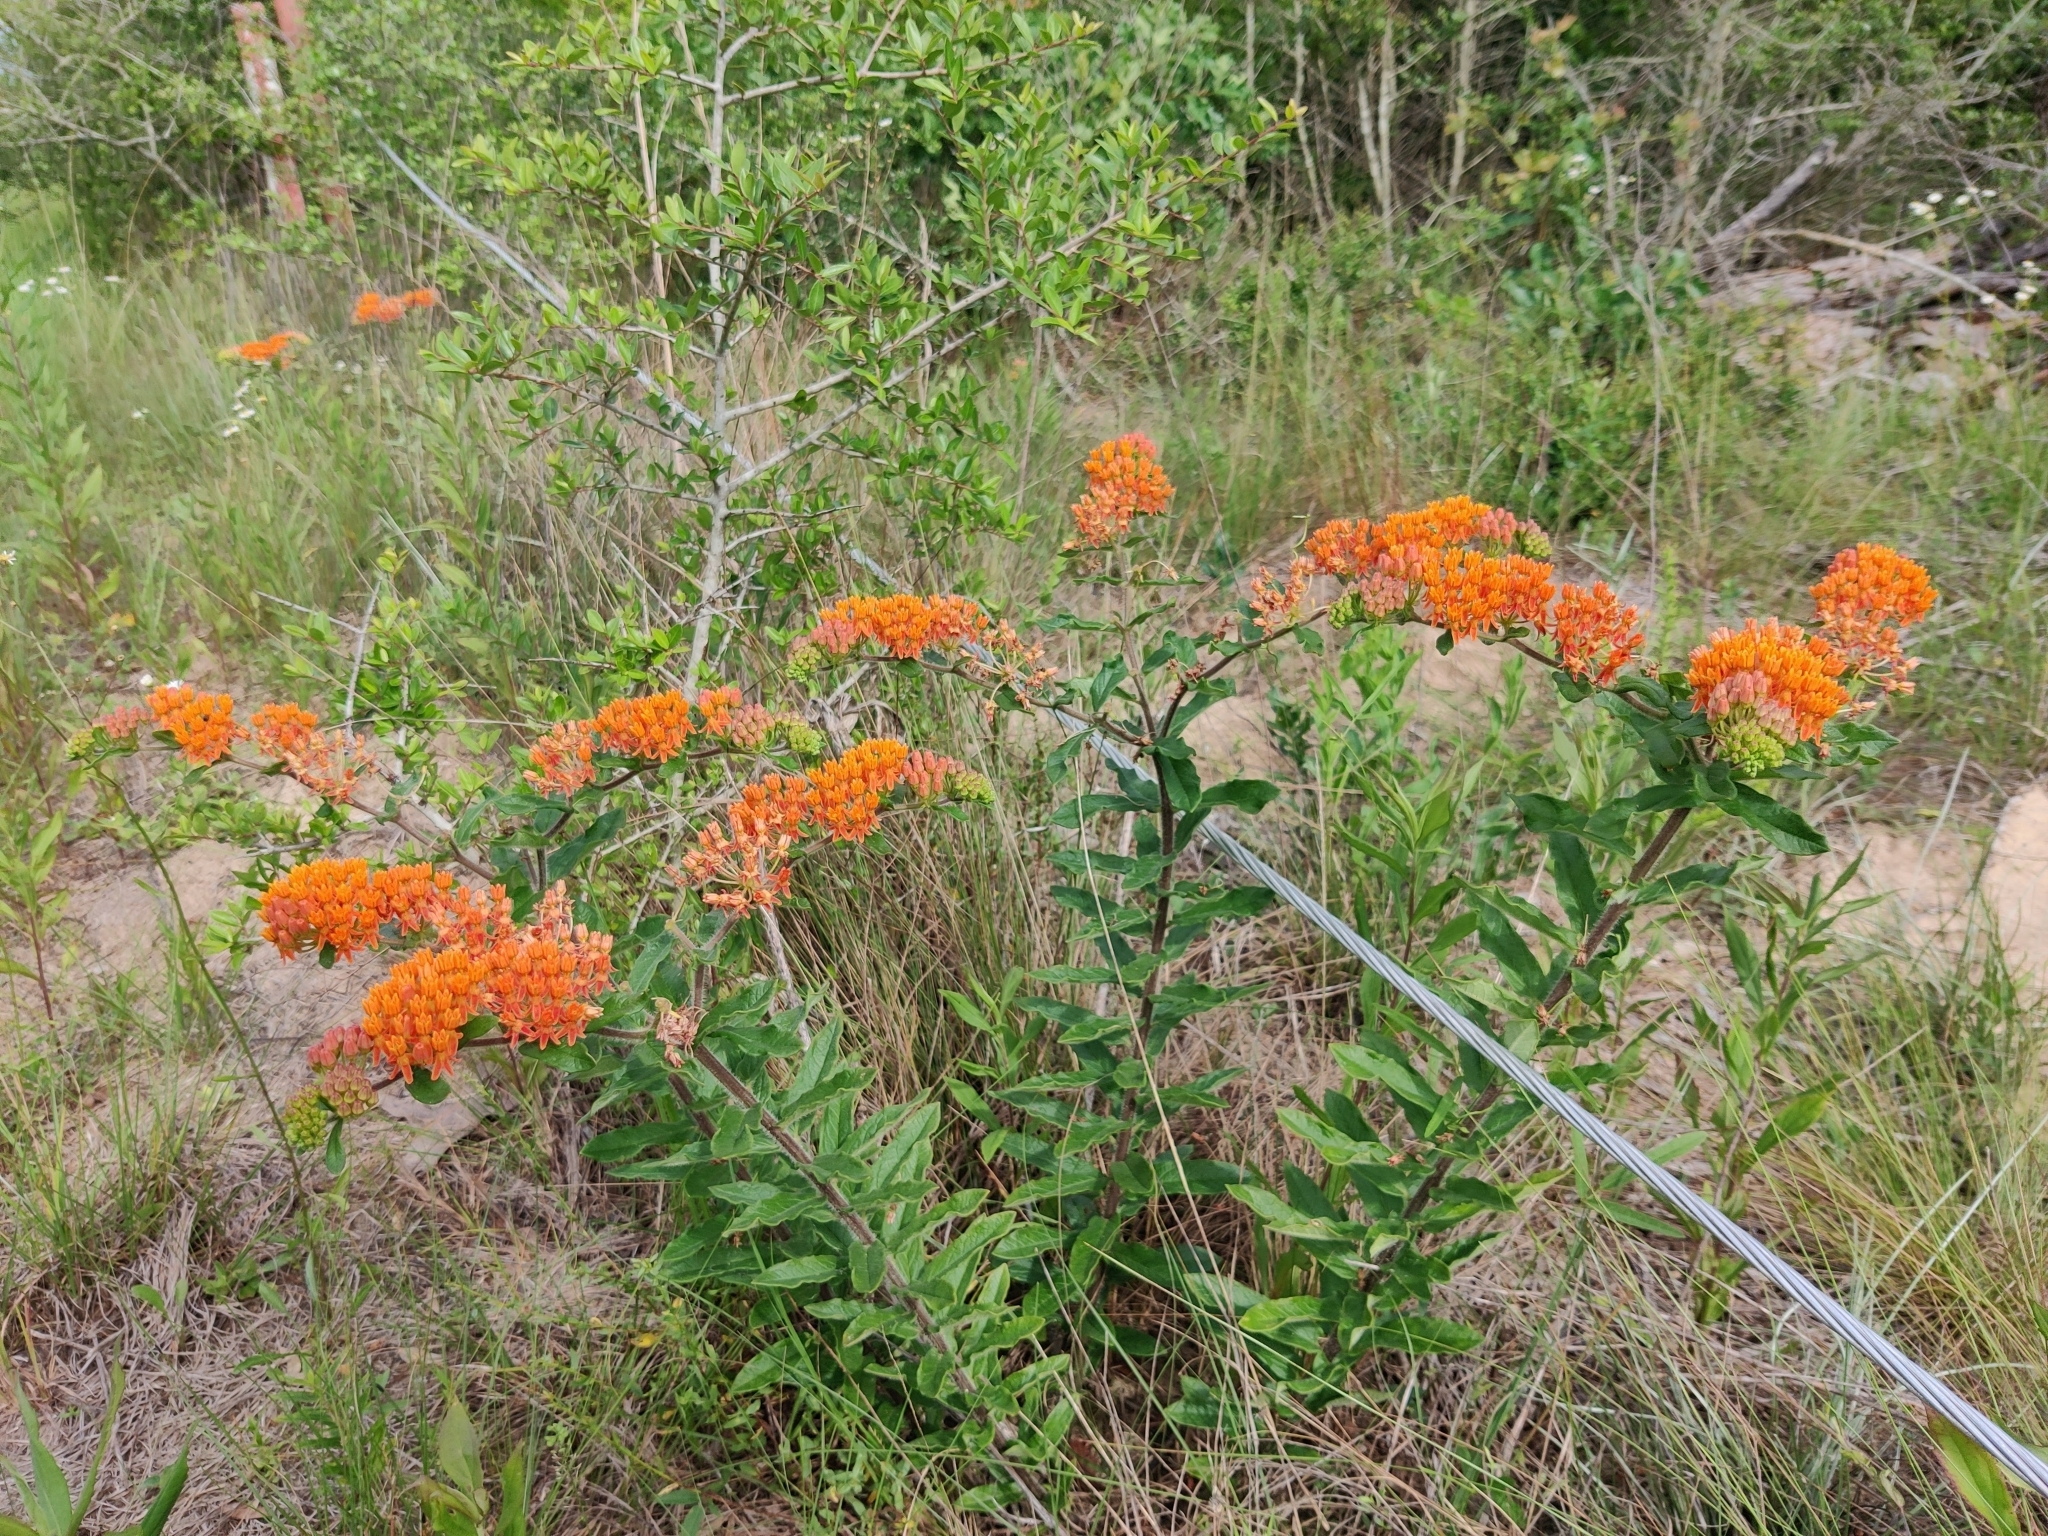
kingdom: Plantae
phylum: Tracheophyta
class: Magnoliopsida
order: Gentianales
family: Apocynaceae
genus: Asclepias
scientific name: Asclepias tuberosa
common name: Butterfly milkweed
